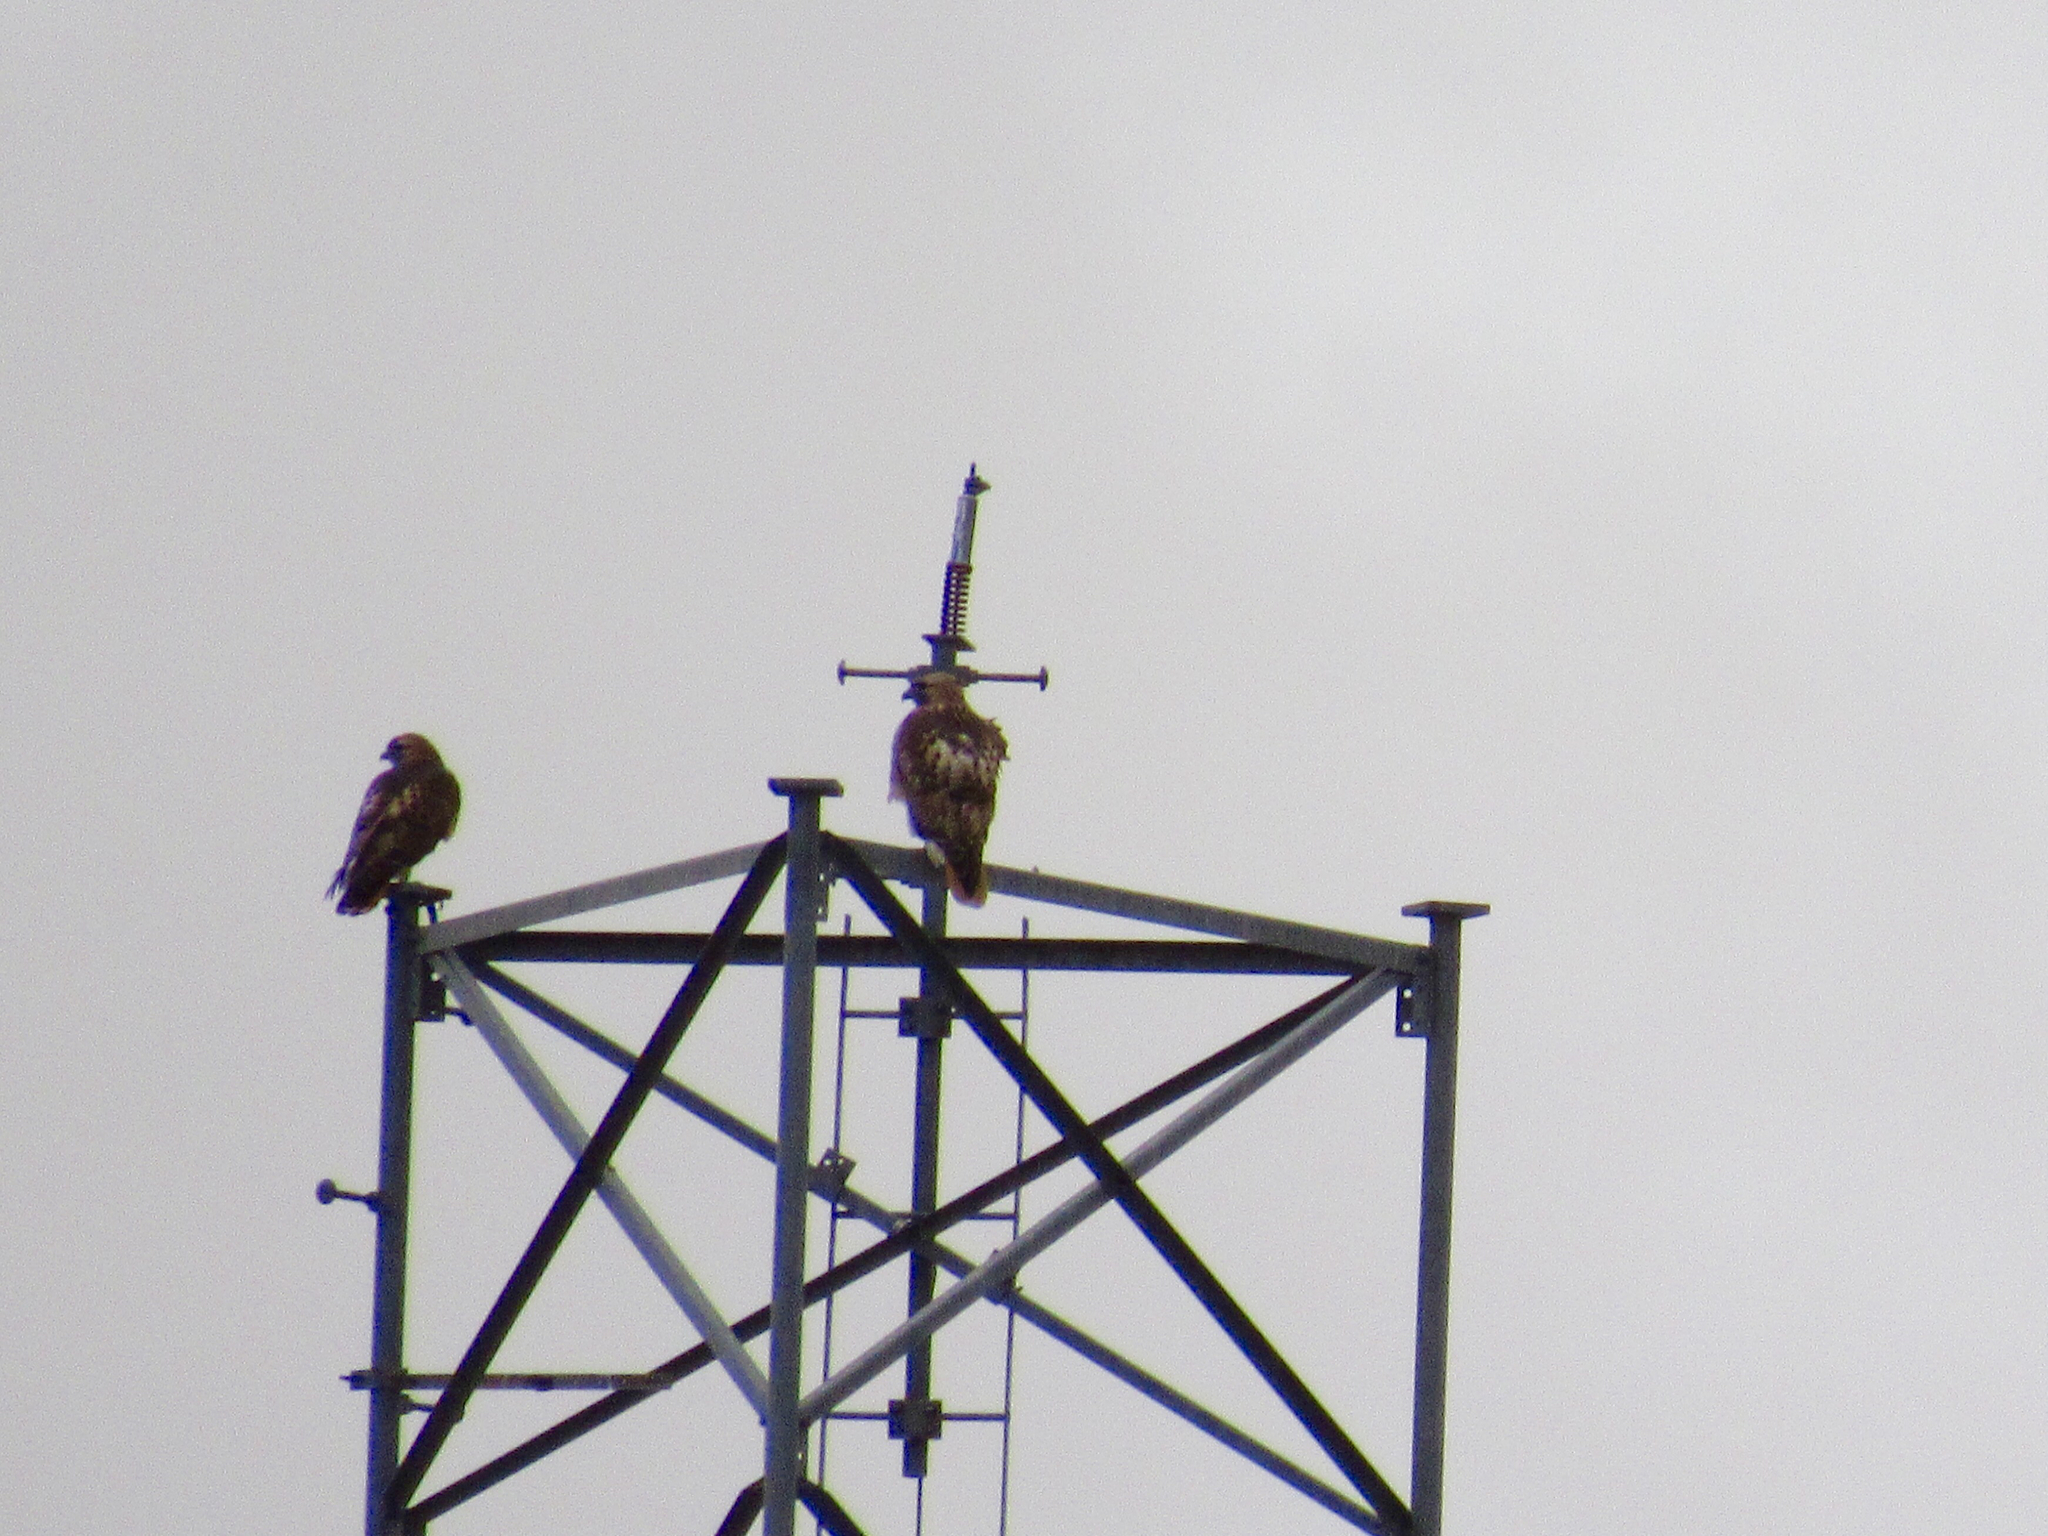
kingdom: Animalia
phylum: Chordata
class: Aves
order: Accipitriformes
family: Accipitridae
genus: Buteo
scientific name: Buteo jamaicensis
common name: Red-tailed hawk
